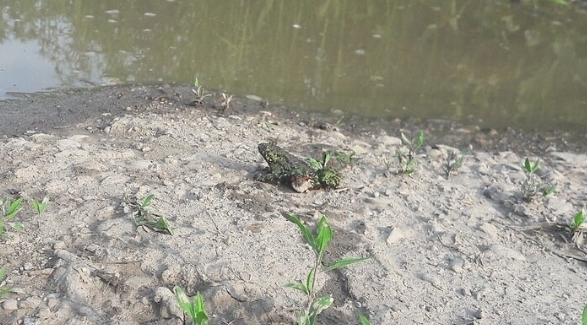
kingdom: Animalia
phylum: Chordata
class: Amphibia
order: Anura
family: Bombinatoridae
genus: Bombina
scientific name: Bombina orientalis
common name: Oriental firebelly toad
